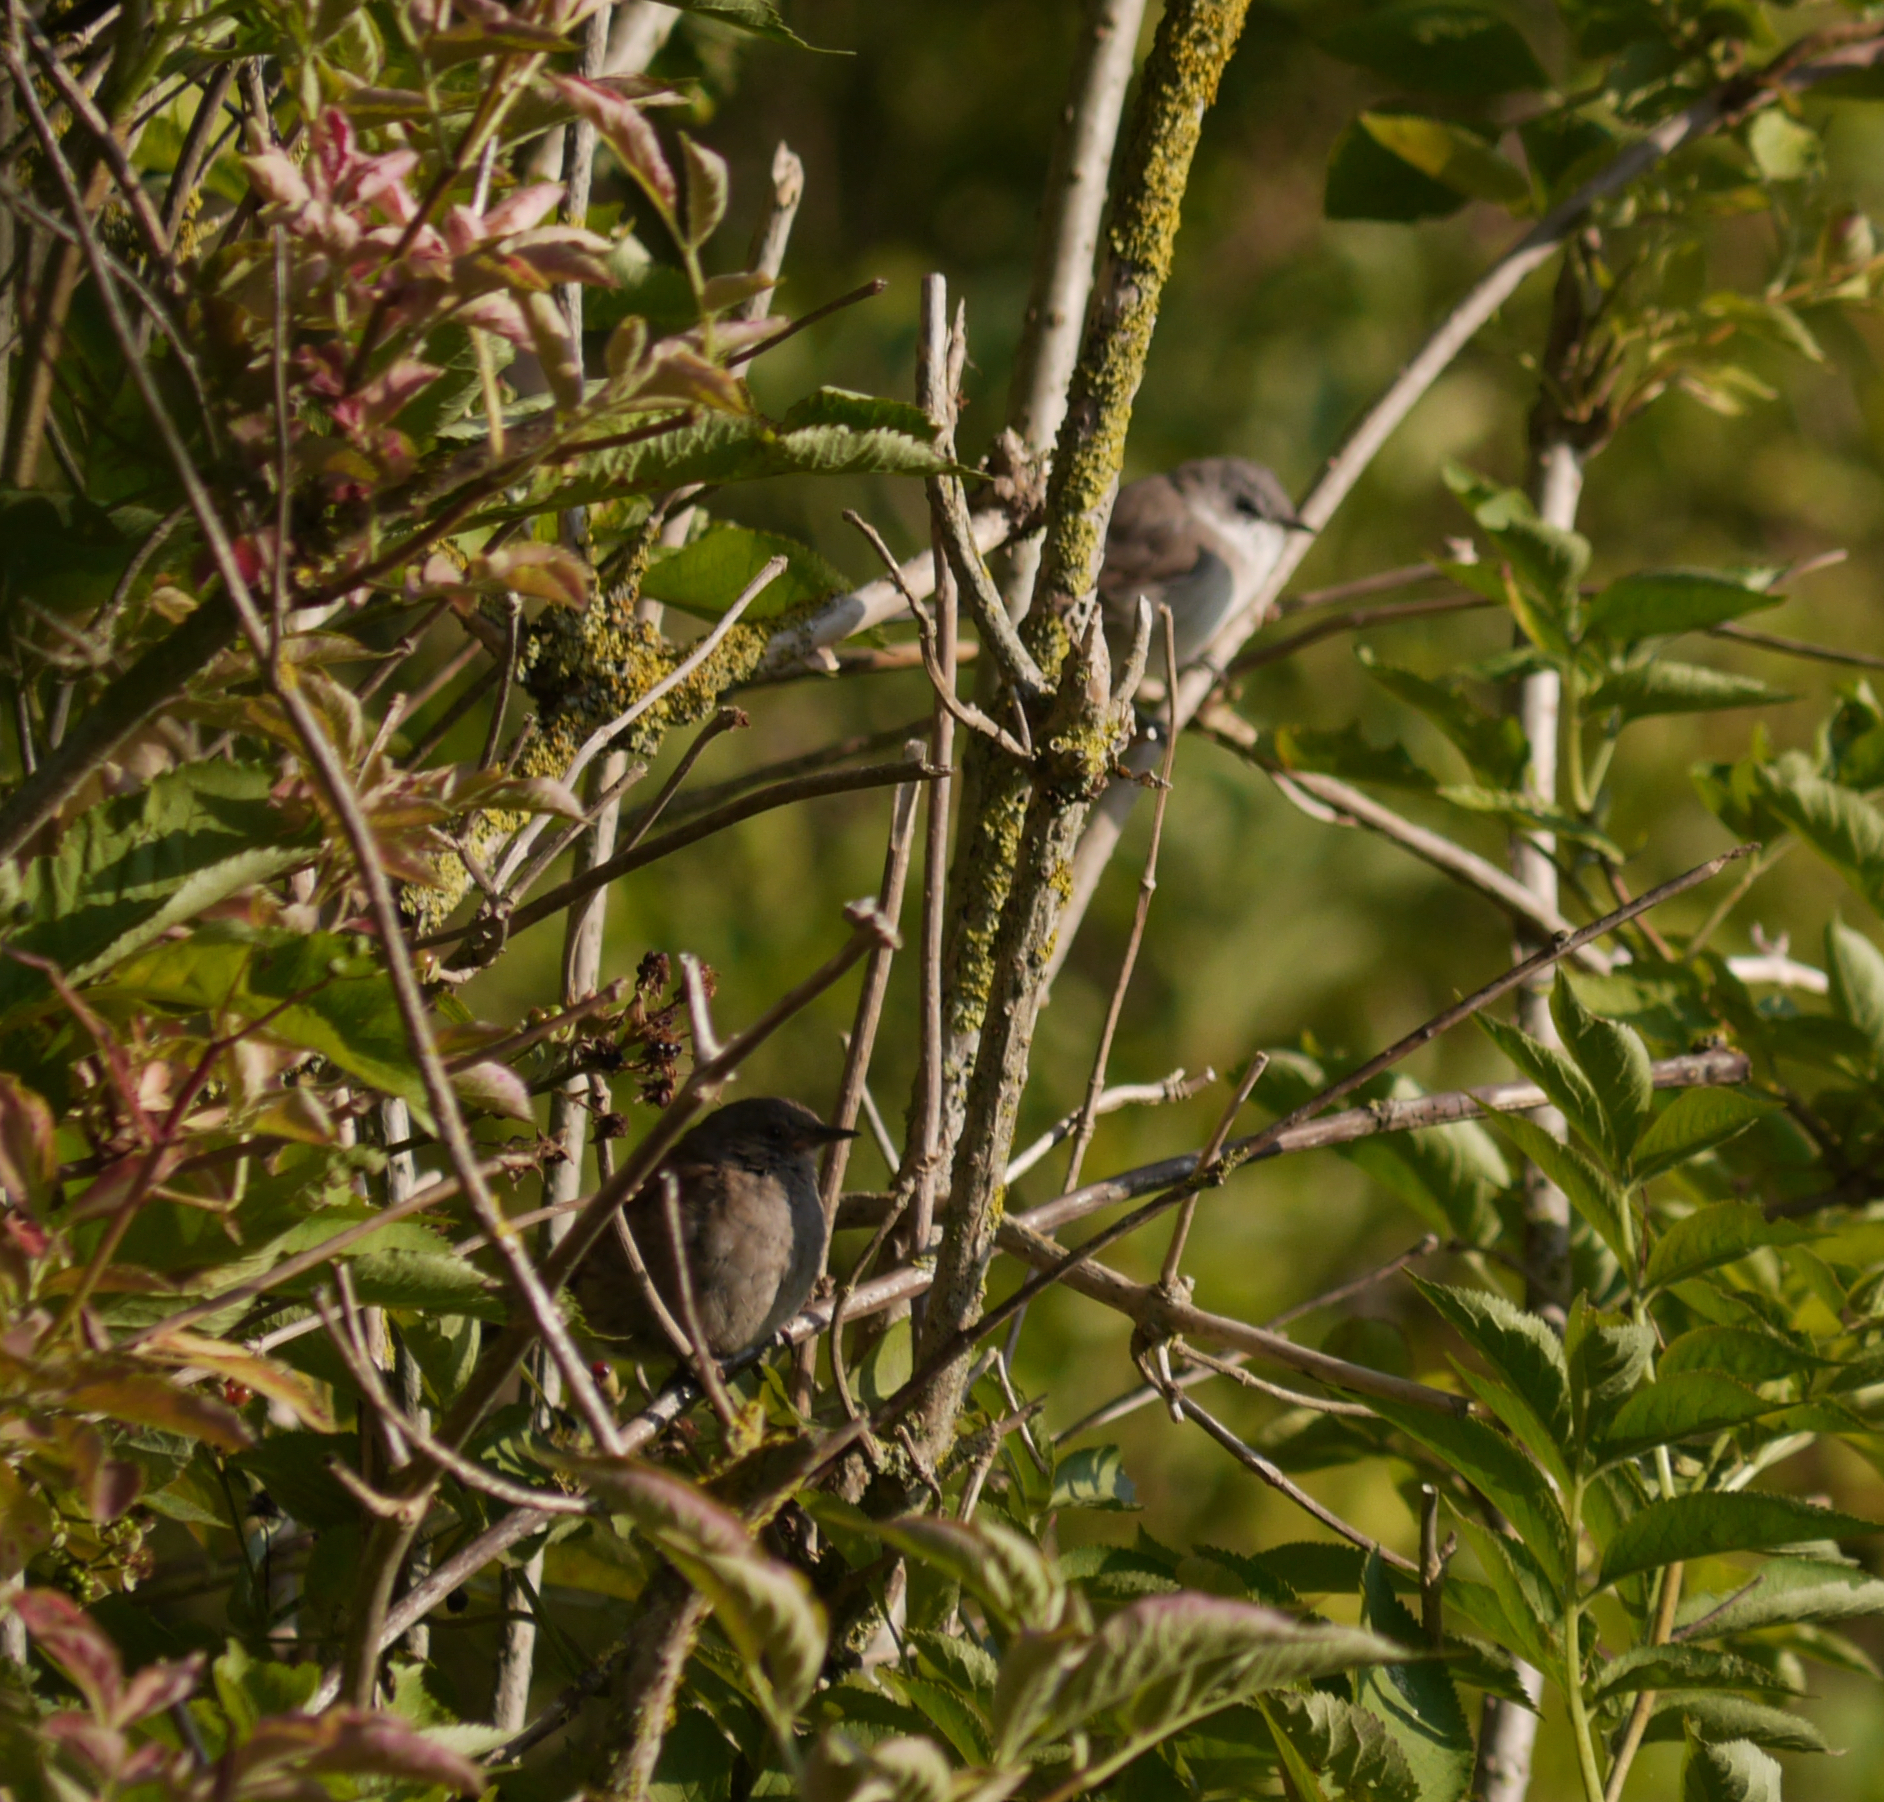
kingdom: Animalia
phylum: Chordata
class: Aves
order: Passeriformes
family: Prunellidae
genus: Prunella
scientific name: Prunella modularis
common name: Dunnock
